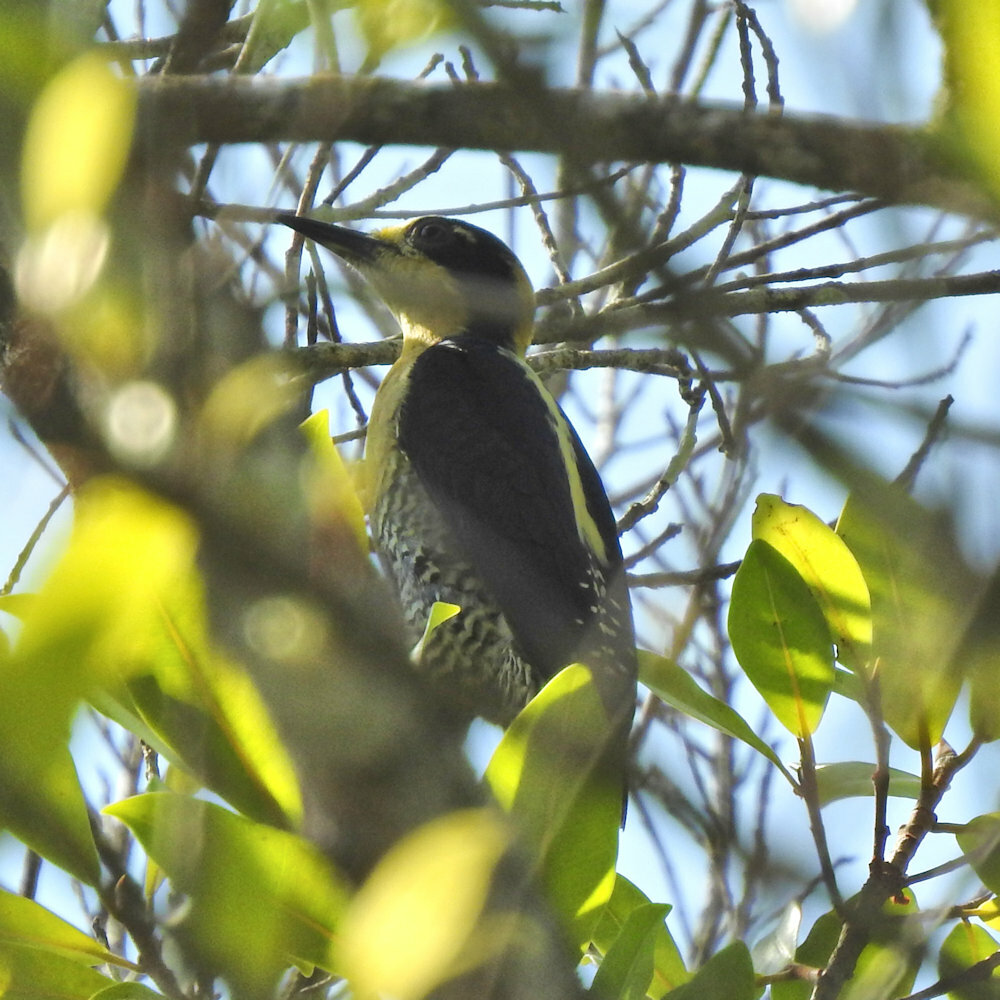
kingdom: Animalia
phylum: Chordata
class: Aves
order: Piciformes
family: Picidae
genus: Melanerpes
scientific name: Melanerpes chrysauchen
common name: Golden-naped woodpecker
